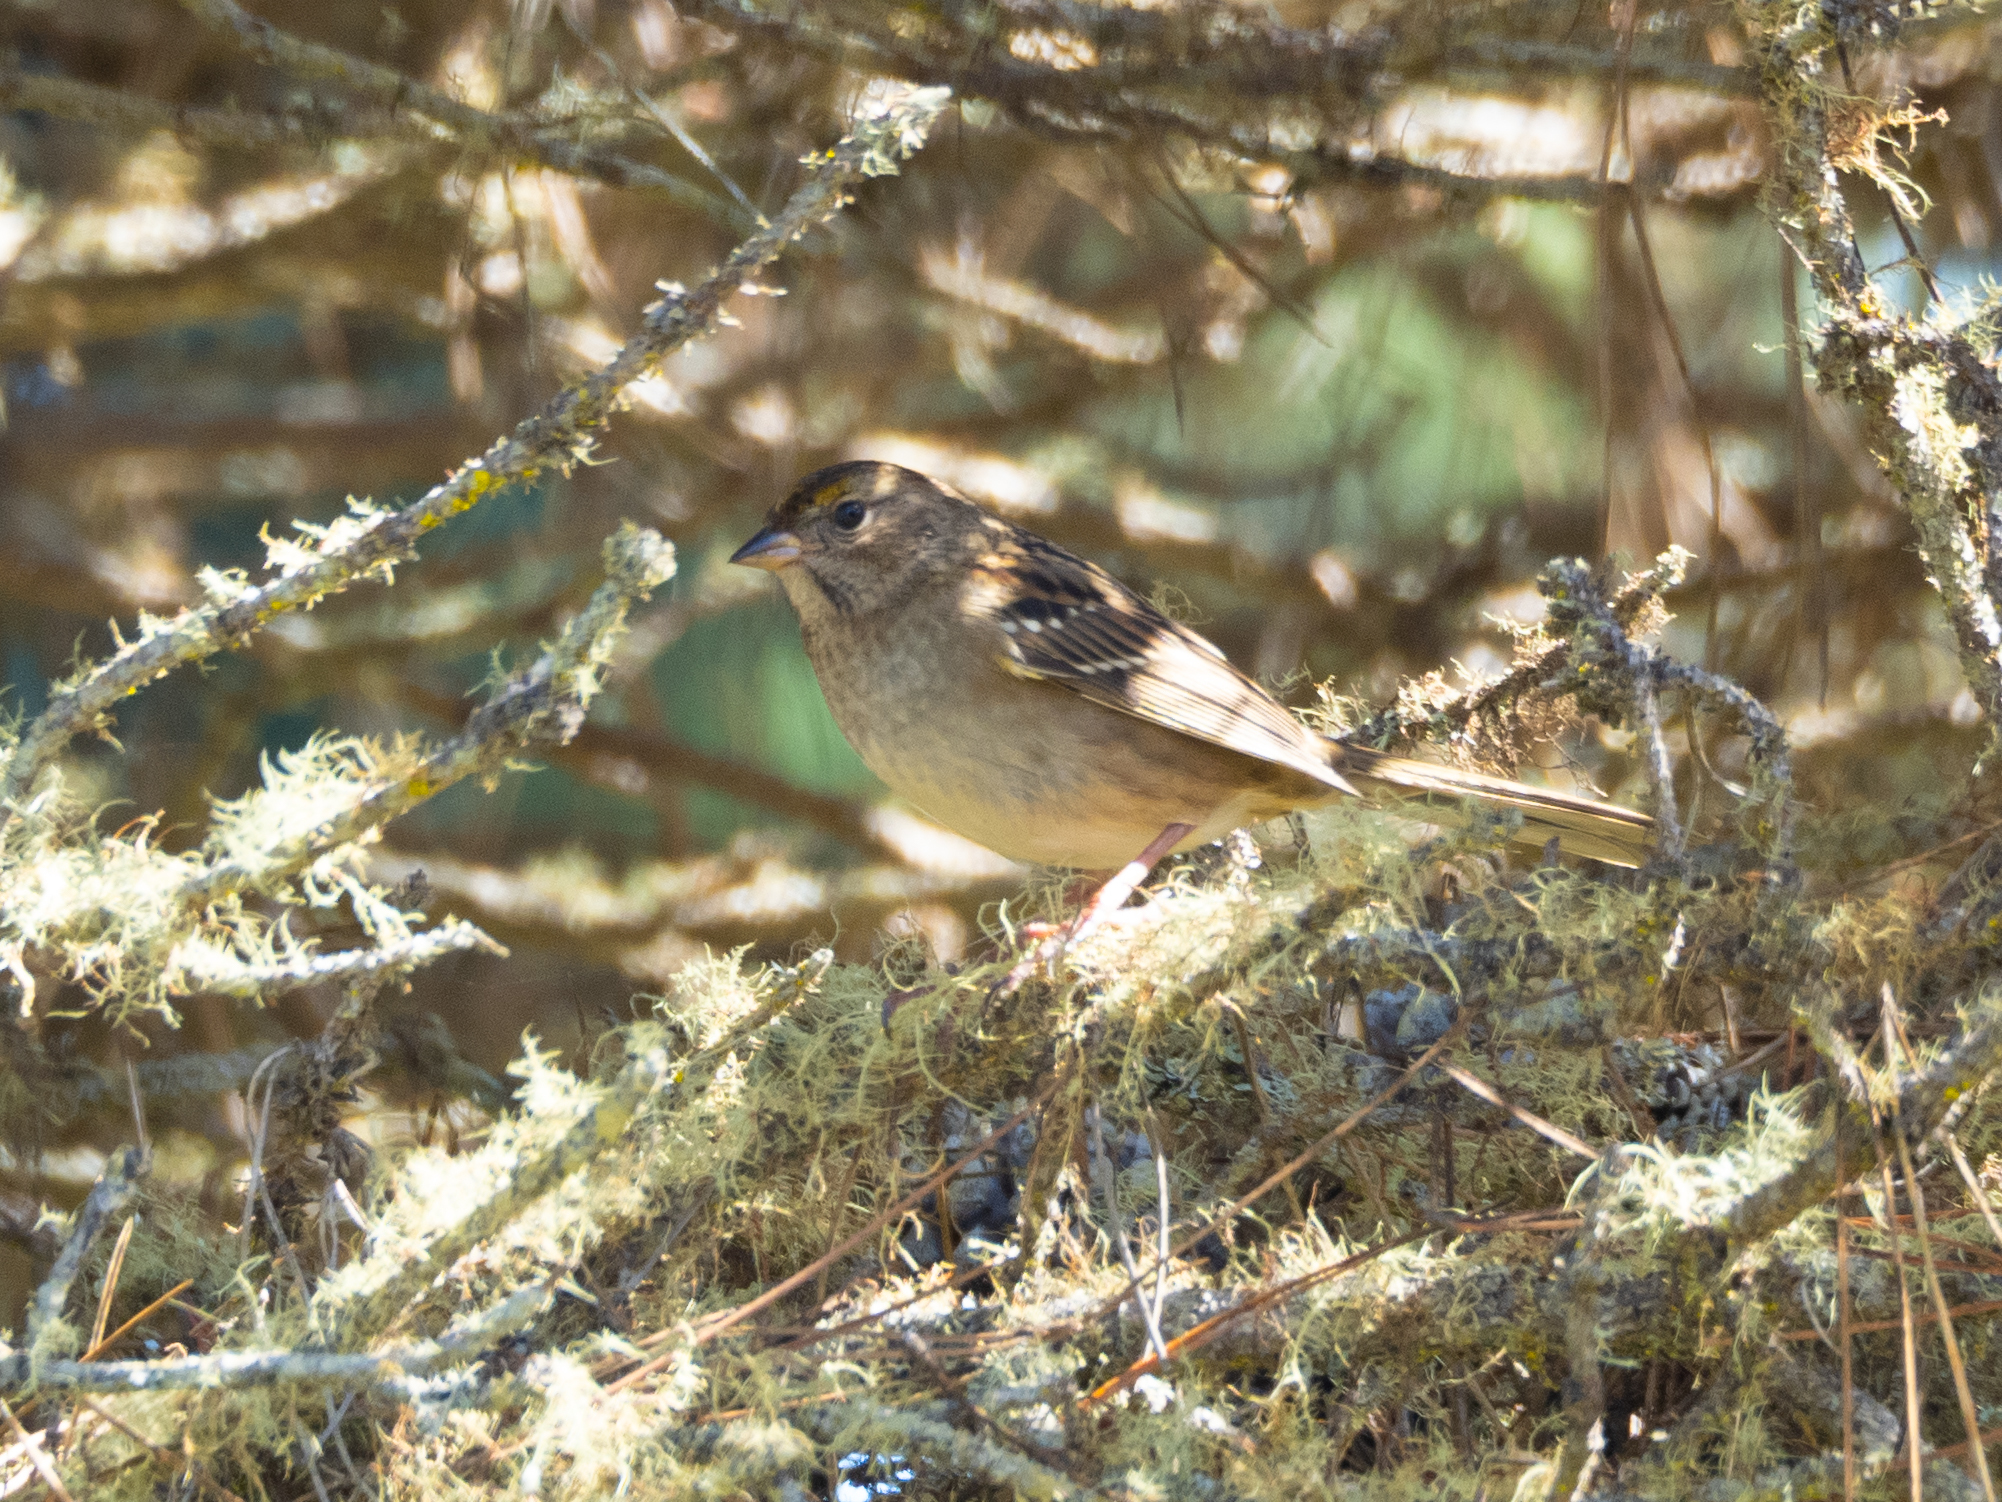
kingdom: Animalia
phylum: Chordata
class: Aves
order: Passeriformes
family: Passerellidae
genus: Zonotrichia
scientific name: Zonotrichia atricapilla
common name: Golden-crowned sparrow
